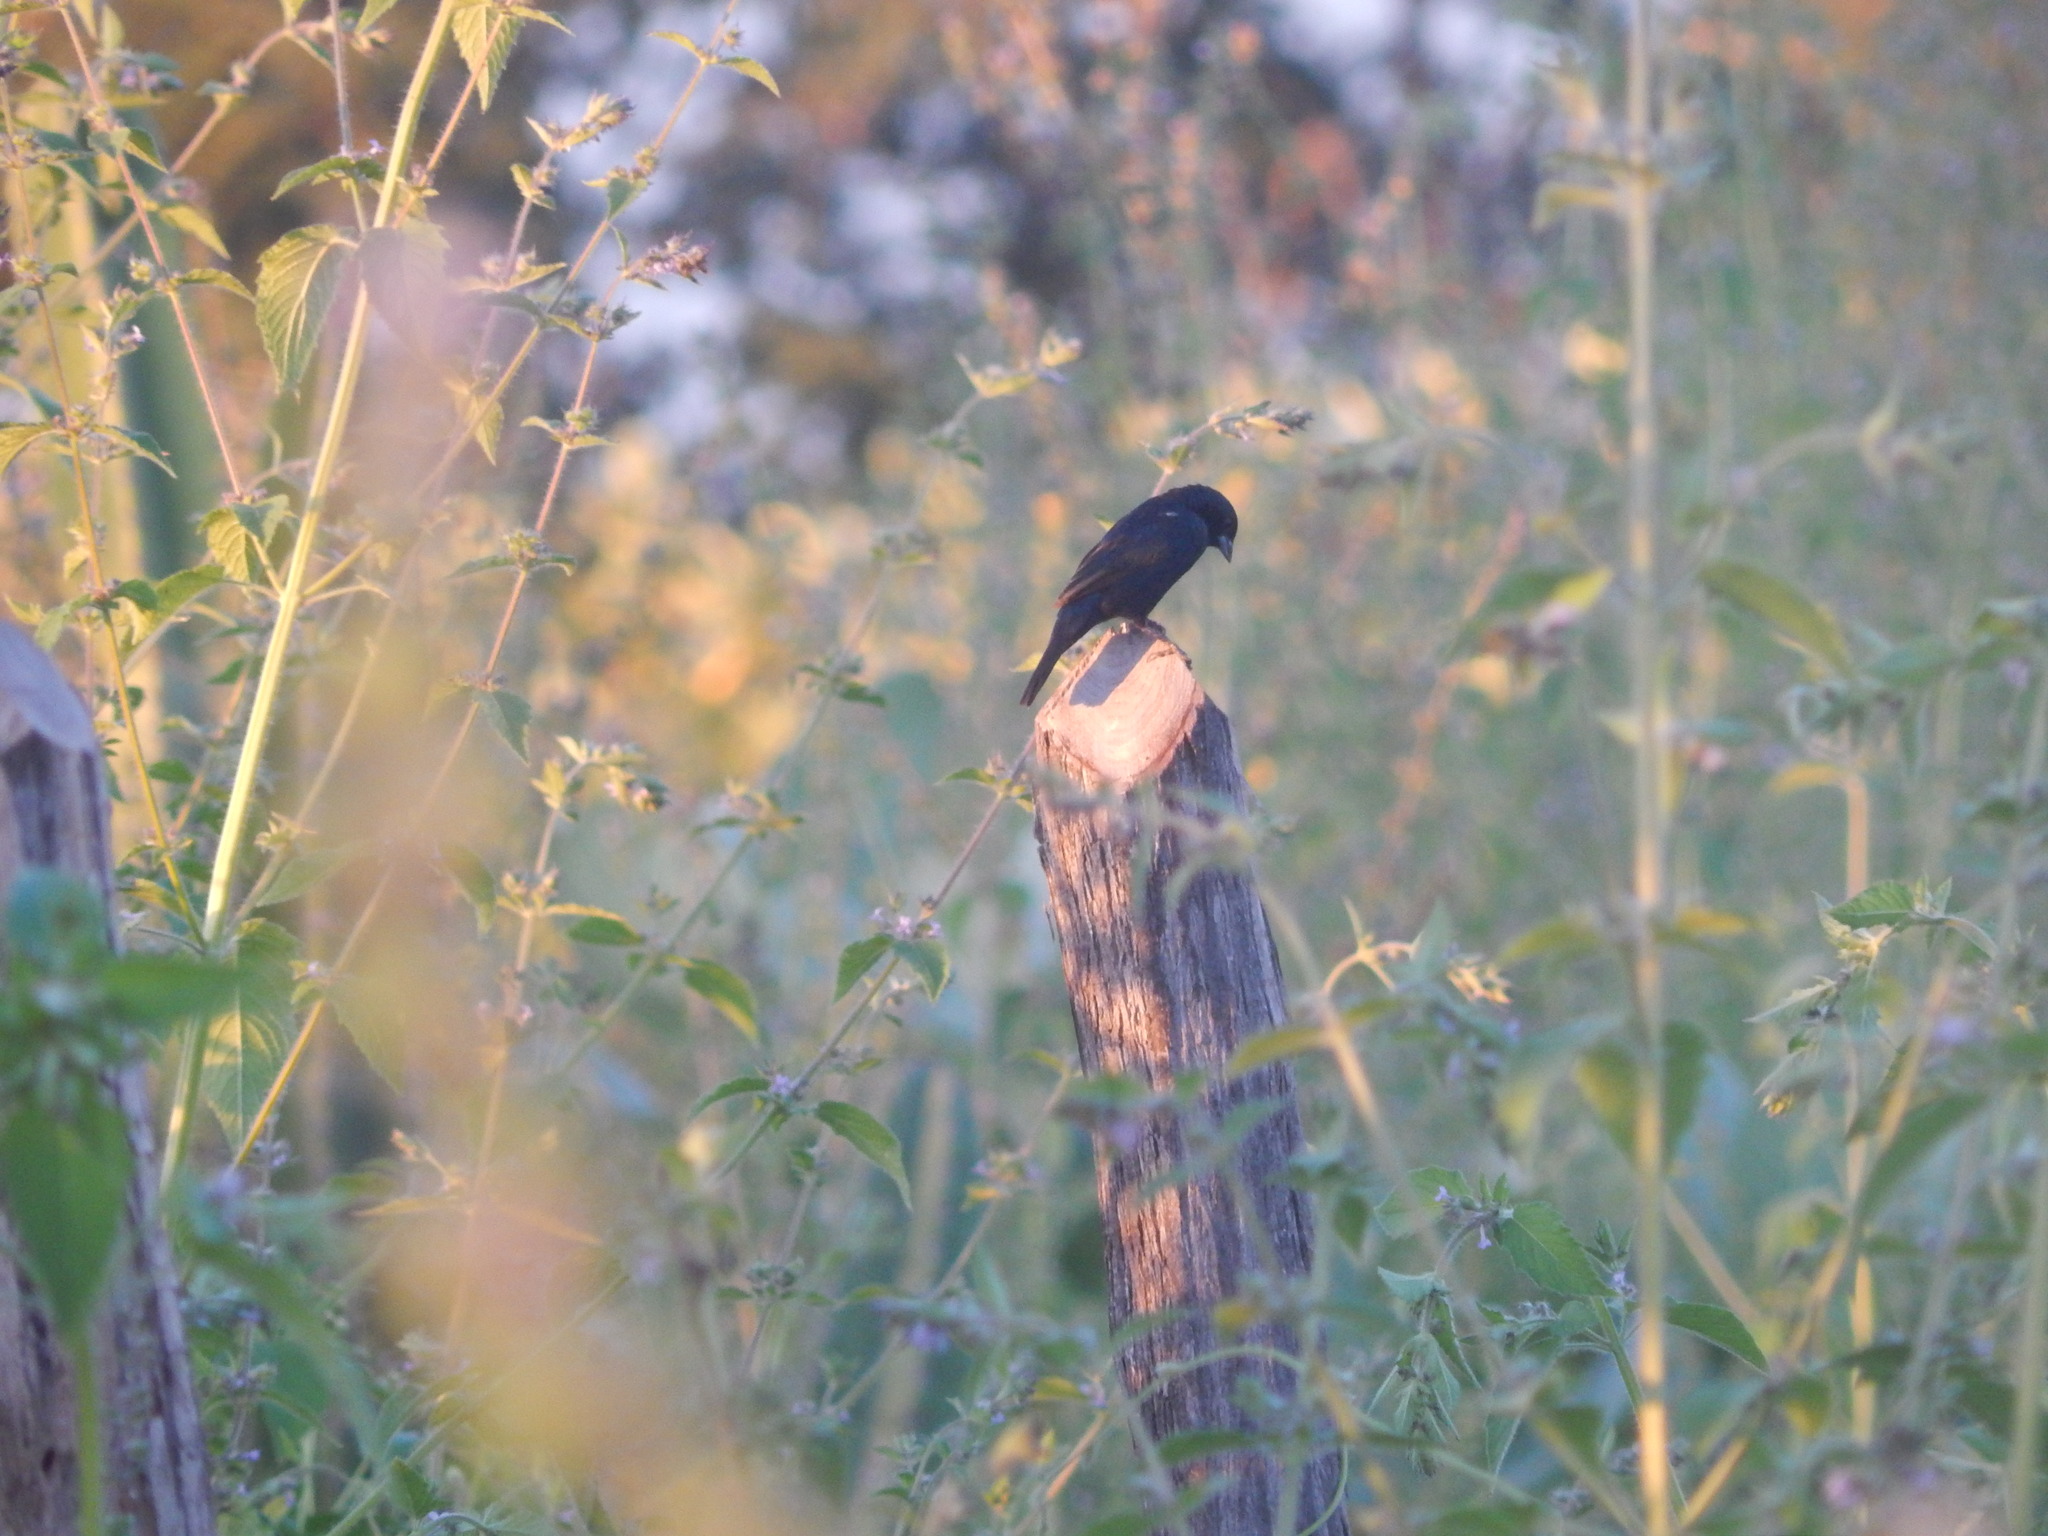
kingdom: Animalia
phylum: Chordata
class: Aves
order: Passeriformes
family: Thraupidae
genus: Volatinia
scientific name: Volatinia jacarina
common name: Blue-black grassquit
